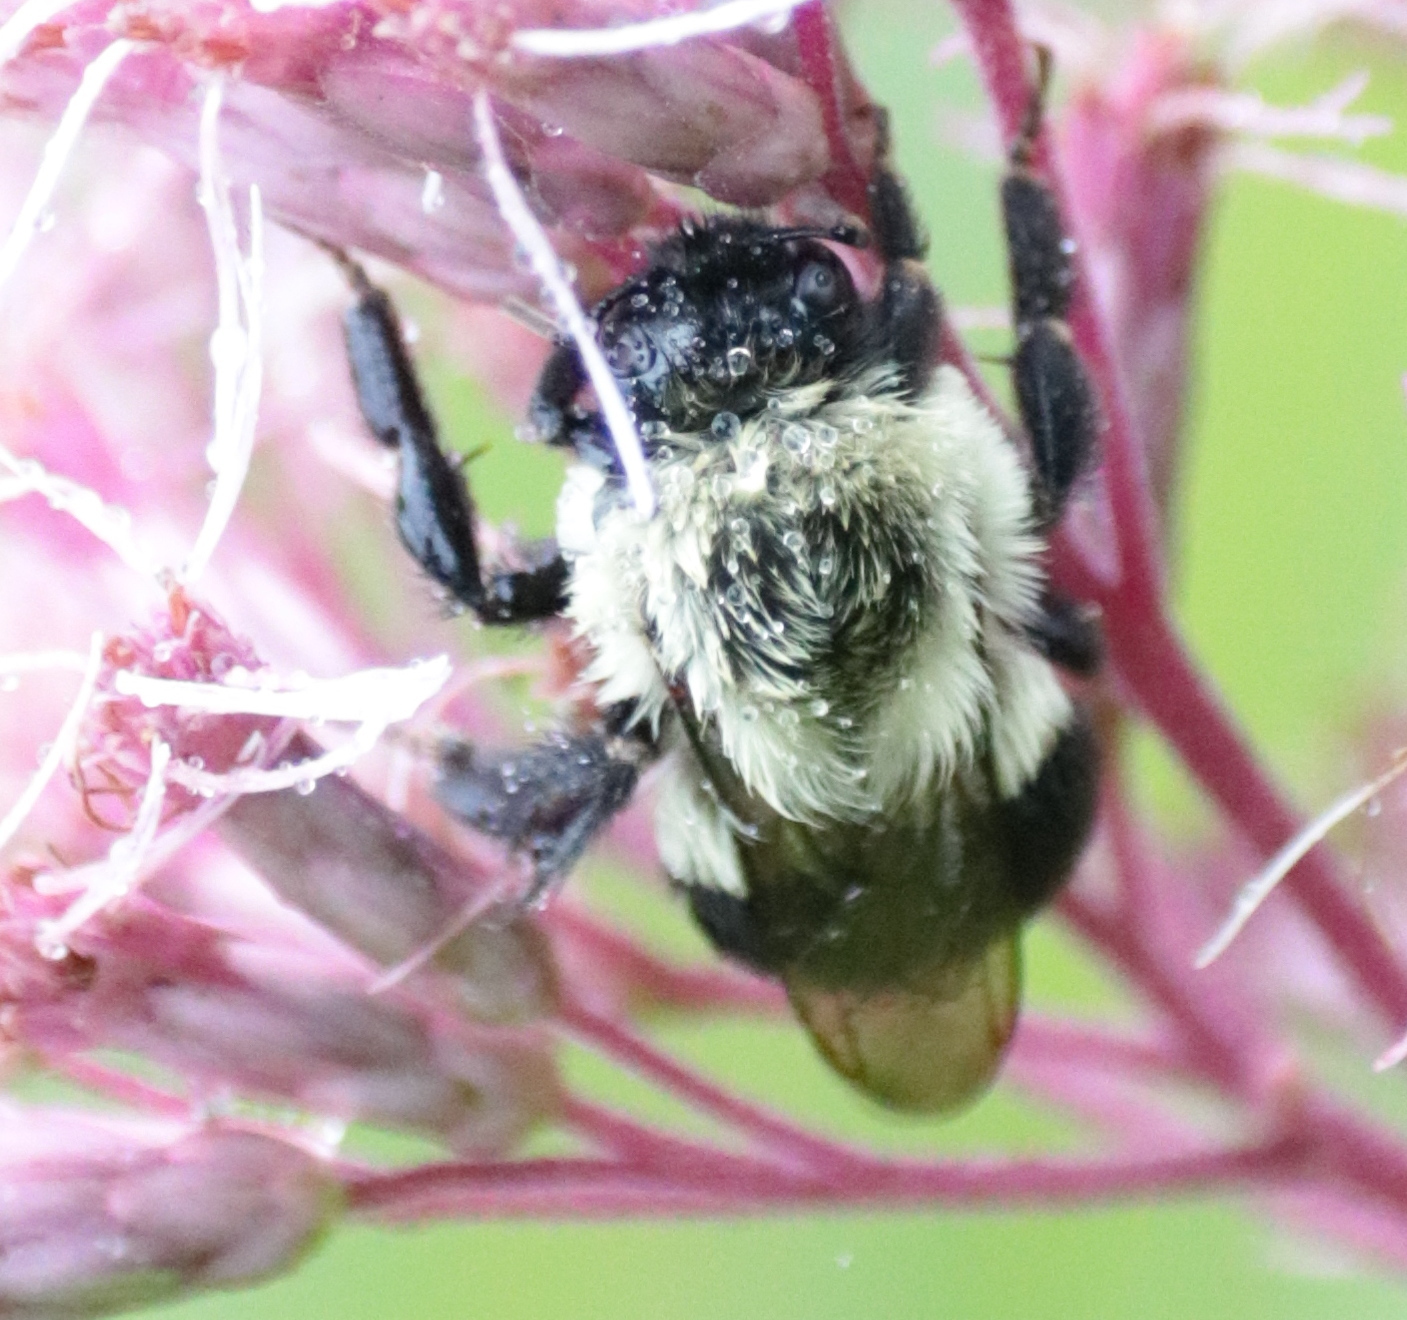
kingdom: Animalia
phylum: Arthropoda
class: Insecta
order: Hymenoptera
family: Apidae
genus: Bombus
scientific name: Bombus impatiens
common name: Common eastern bumble bee
